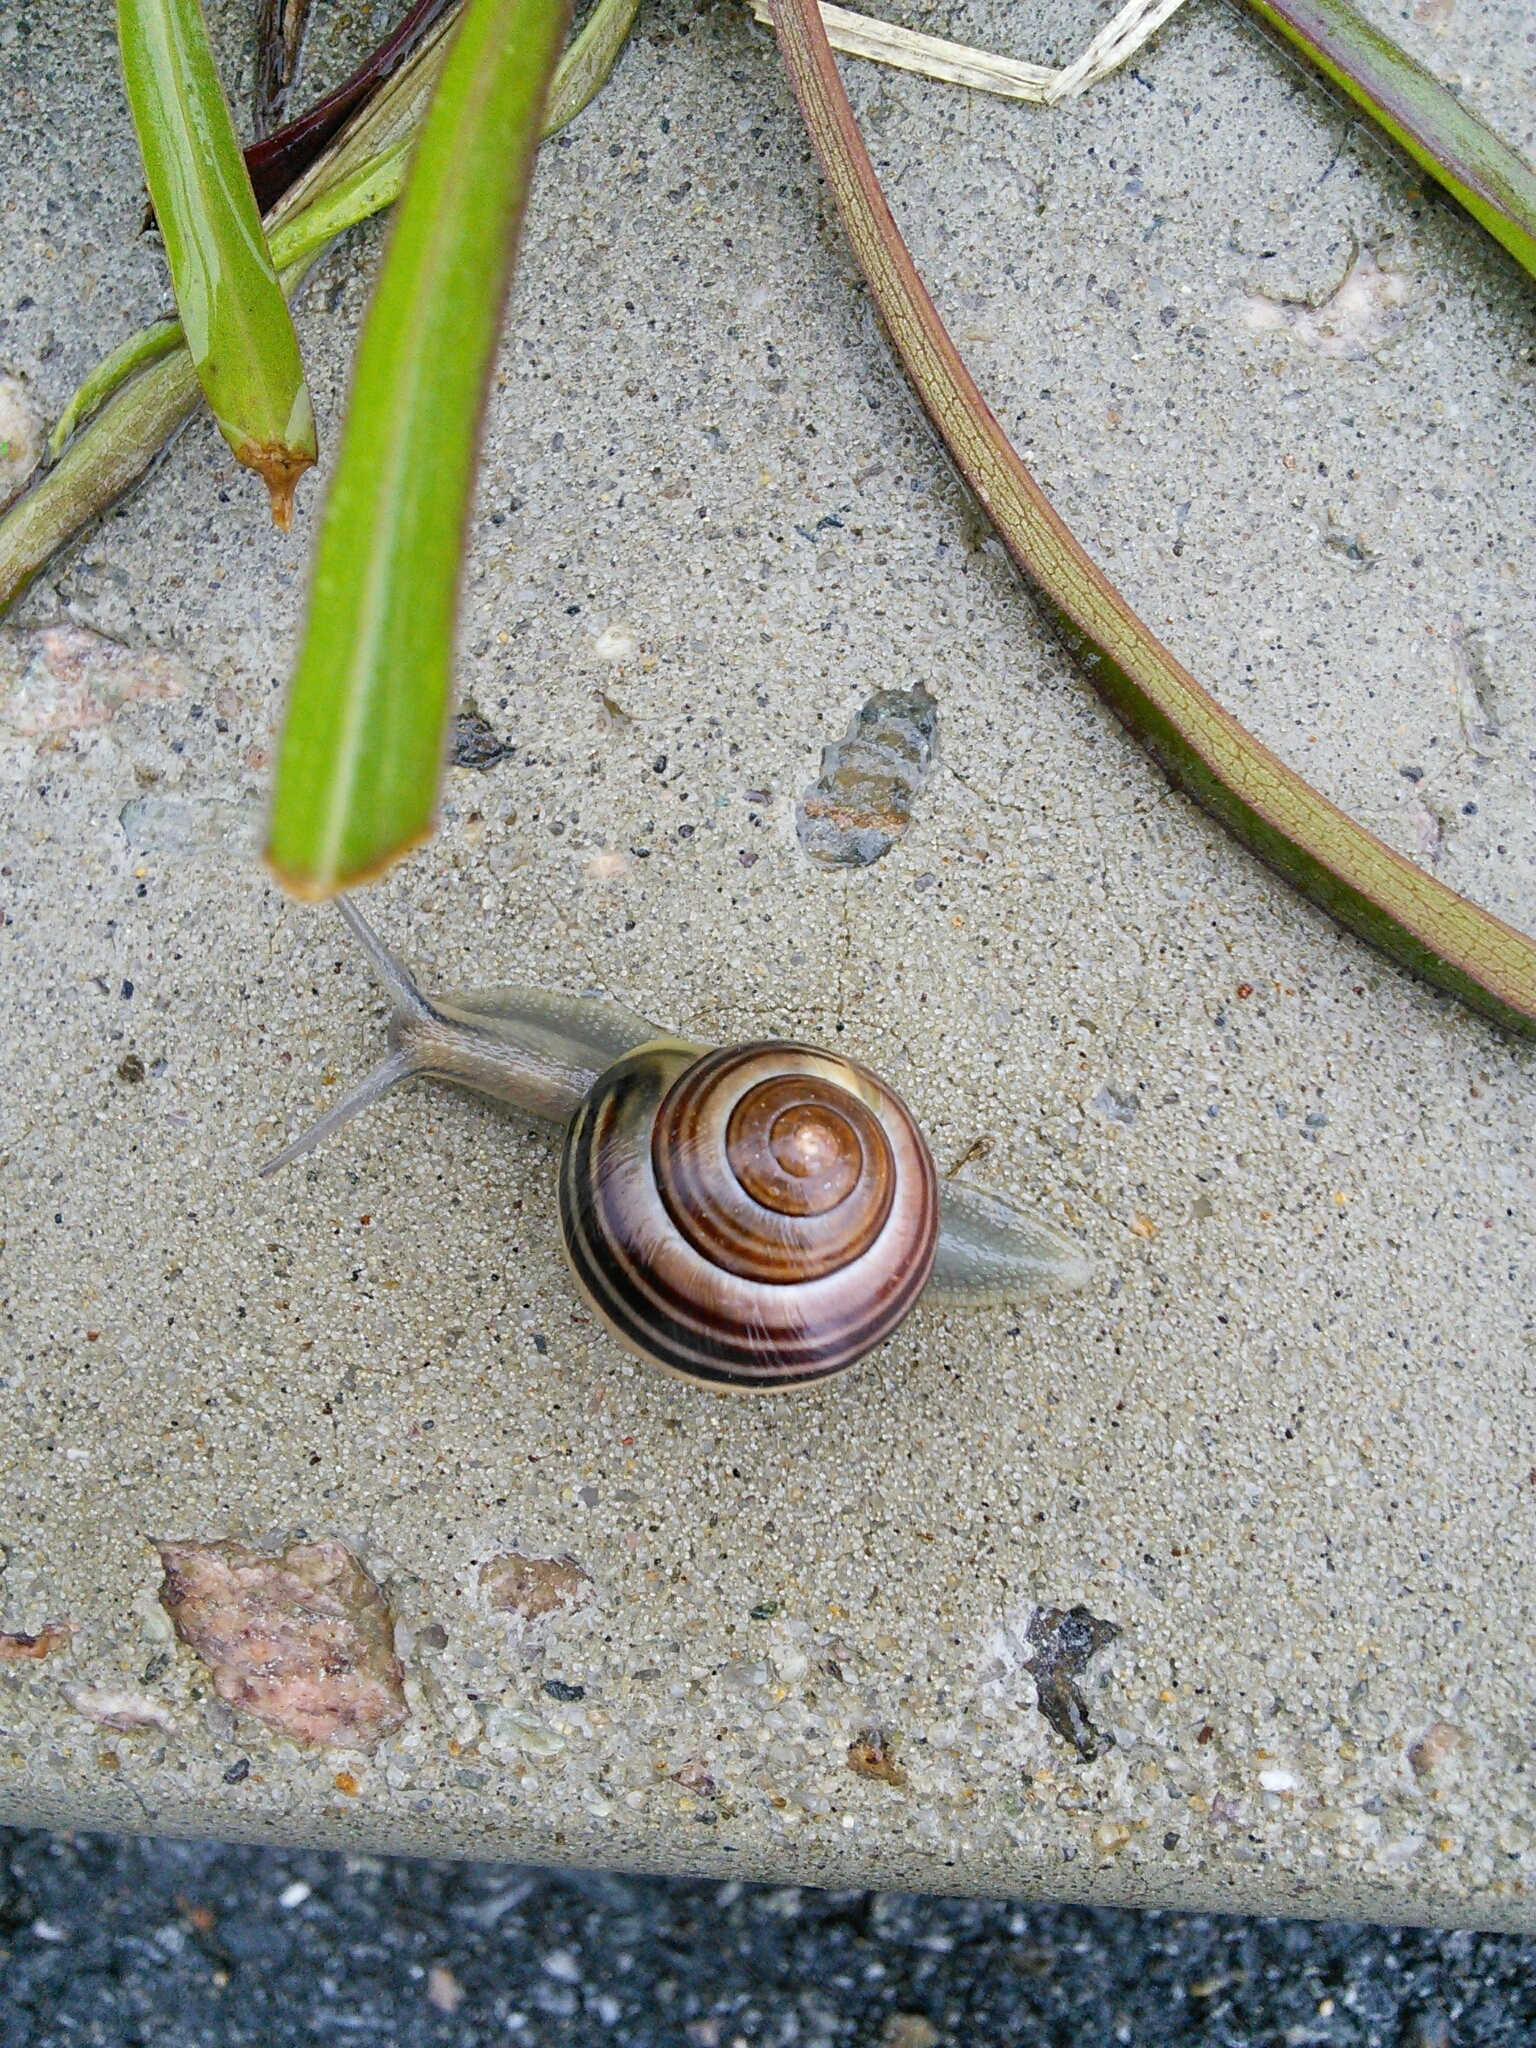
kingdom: Animalia
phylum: Mollusca
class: Gastropoda
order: Stylommatophora
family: Helicidae
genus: Cepaea
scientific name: Cepaea nemoralis
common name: Grovesnail
